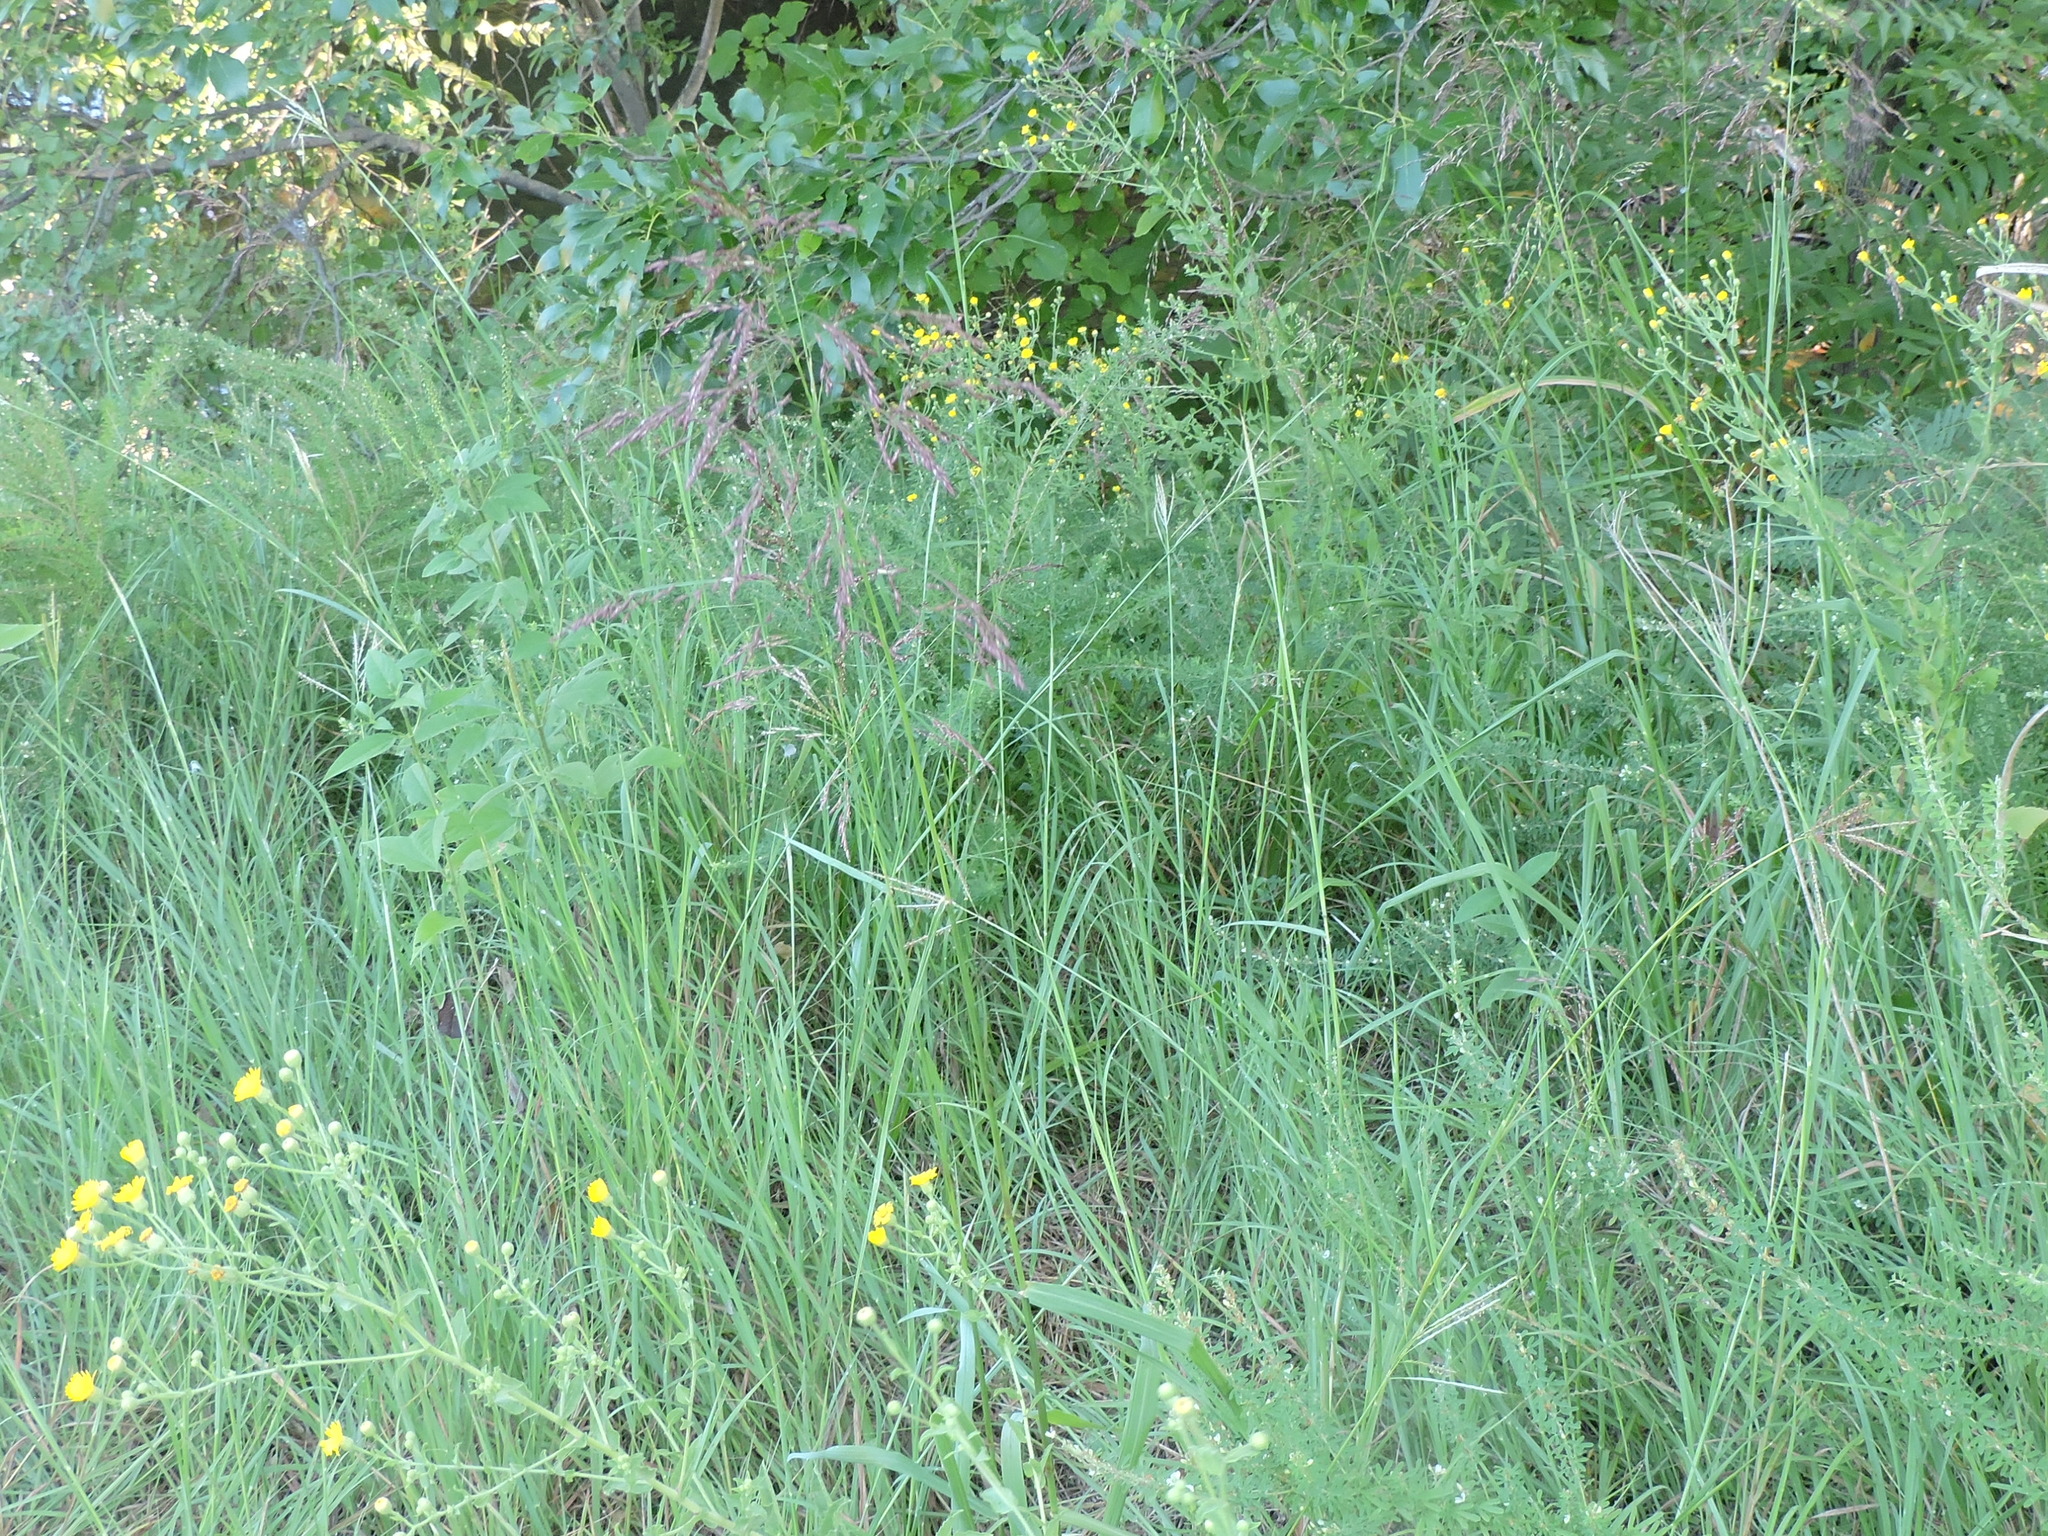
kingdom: Plantae
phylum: Tracheophyta
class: Liliopsida
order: Poales
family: Poaceae
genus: Tridens
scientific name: Tridens flavus
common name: Purpletop
